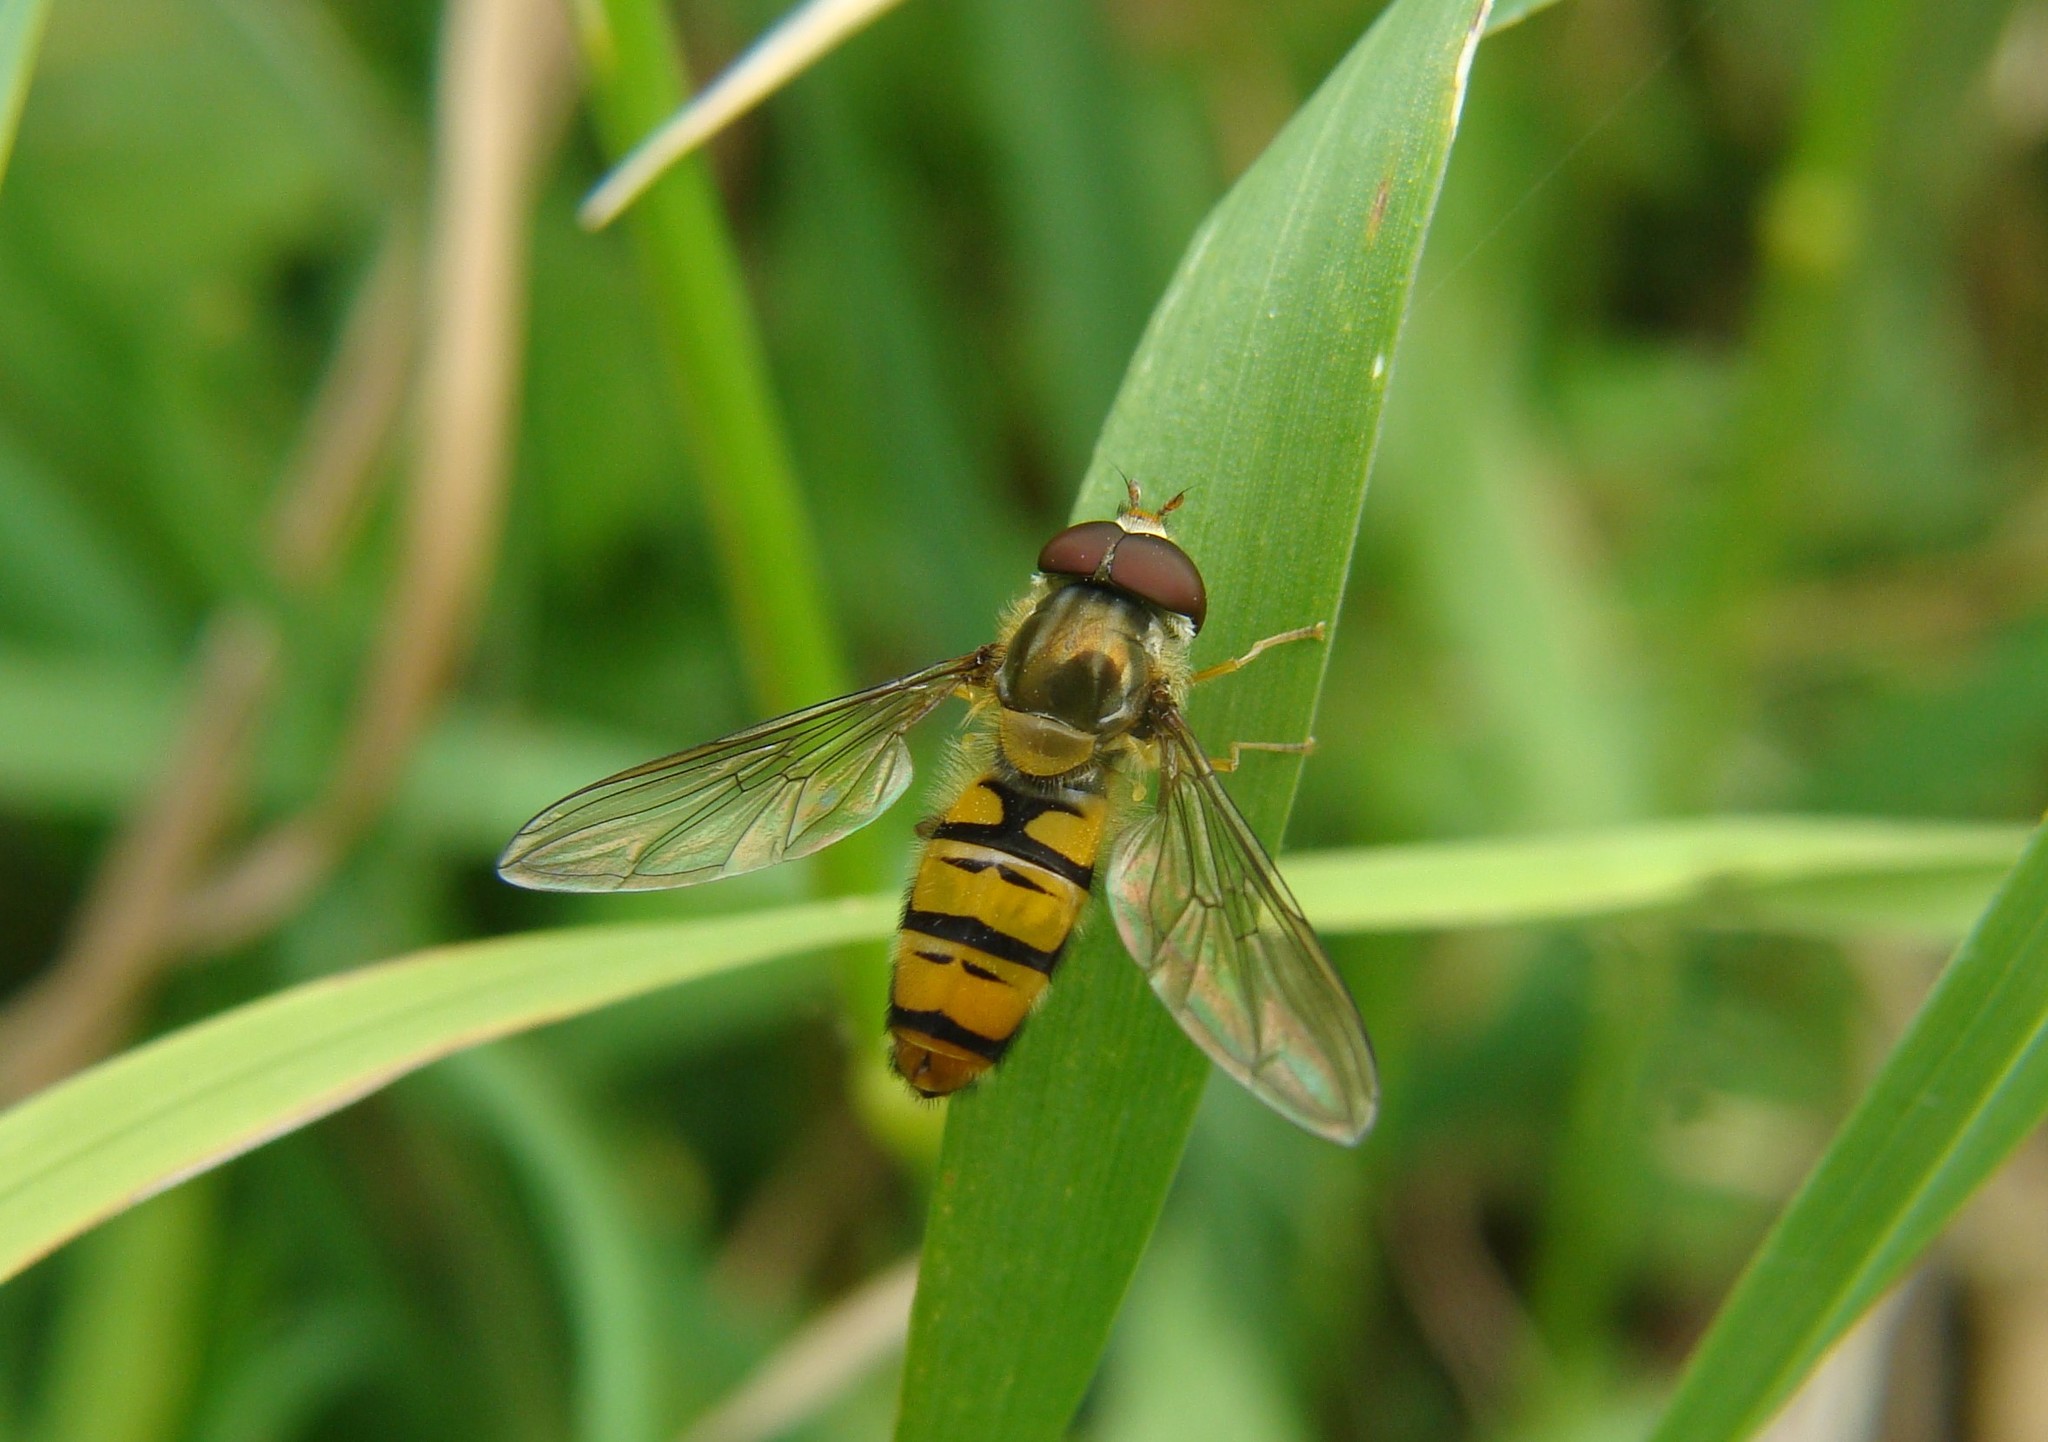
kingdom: Animalia
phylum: Arthropoda
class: Insecta
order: Diptera
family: Syrphidae
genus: Episyrphus
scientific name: Episyrphus balteatus
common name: Marmalade hoverfly
